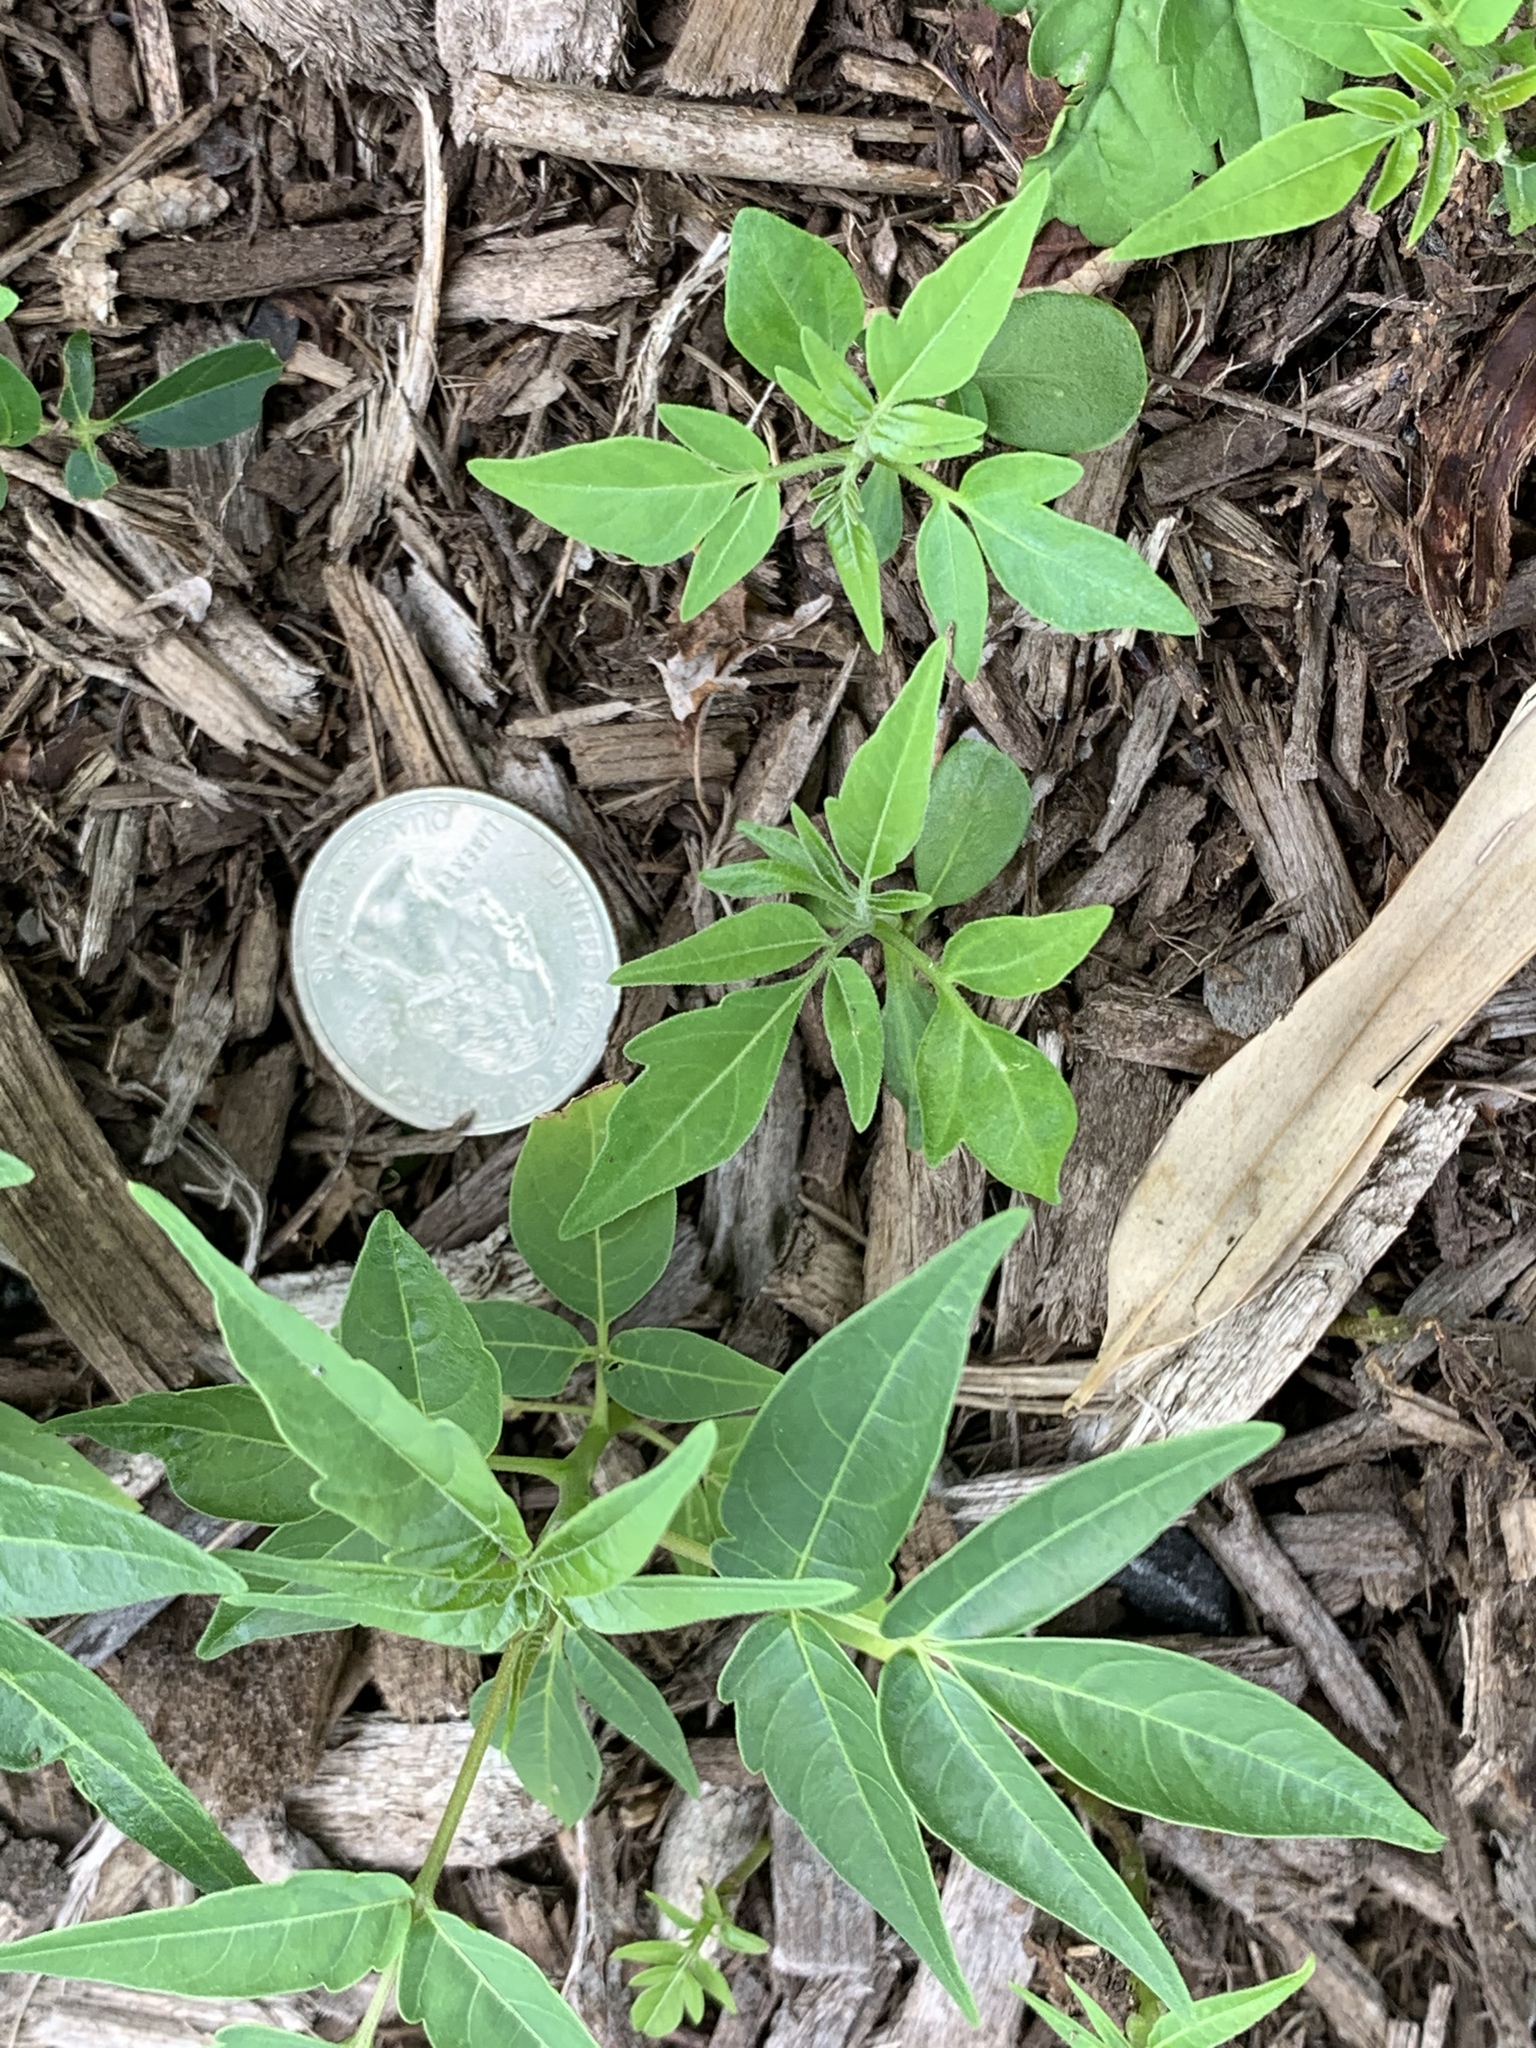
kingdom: Plantae
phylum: Tracheophyta
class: Magnoliopsida
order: Sapindales
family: Simaroubaceae
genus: Ailanthus
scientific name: Ailanthus altissima
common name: Tree-of-heaven
